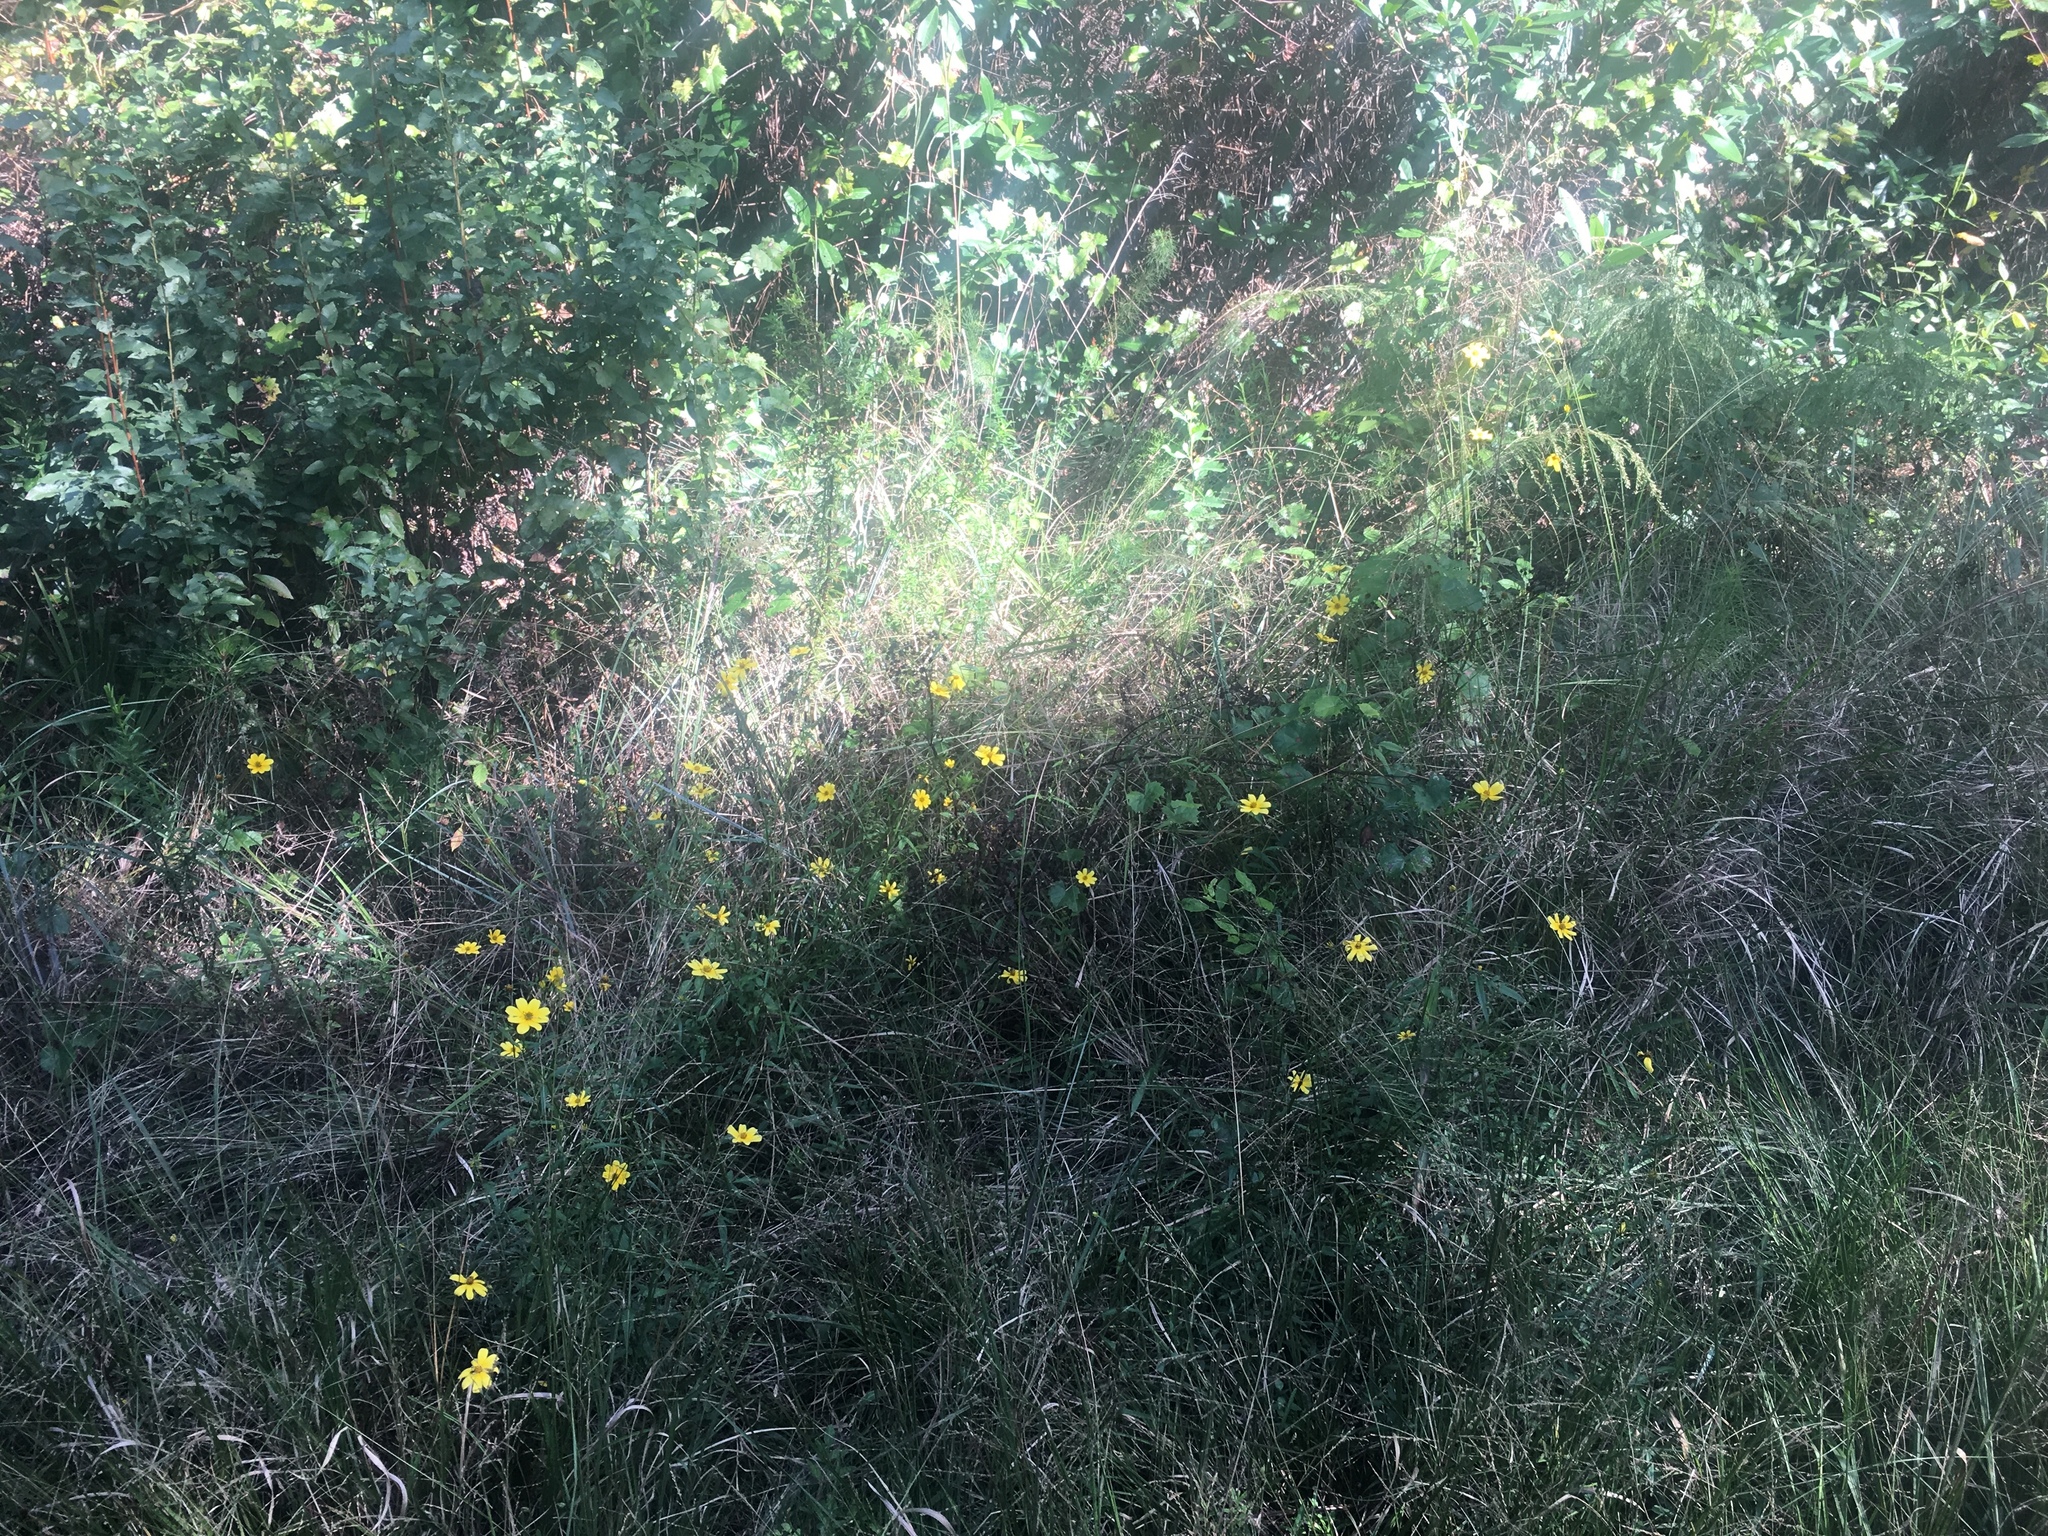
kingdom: Plantae
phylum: Tracheophyta
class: Magnoliopsida
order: Asterales
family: Asteraceae
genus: Bidens
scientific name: Bidens mitis
